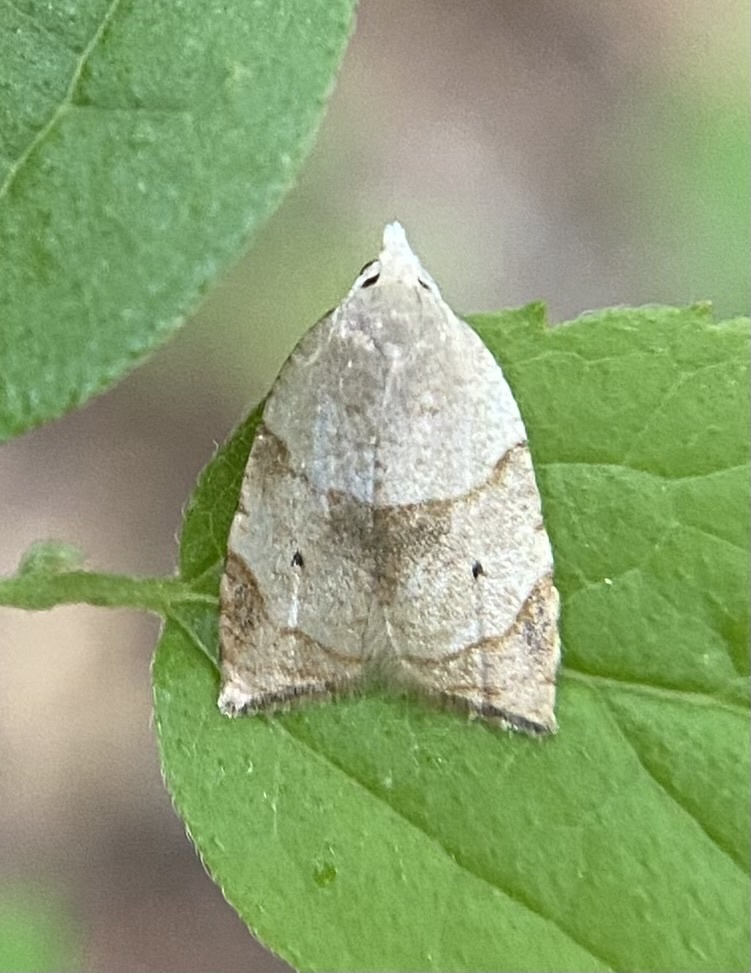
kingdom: Animalia
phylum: Arthropoda
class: Insecta
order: Lepidoptera
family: Tortricidae
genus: Coelostathma
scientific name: Coelostathma discopunctana
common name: Batman moth
